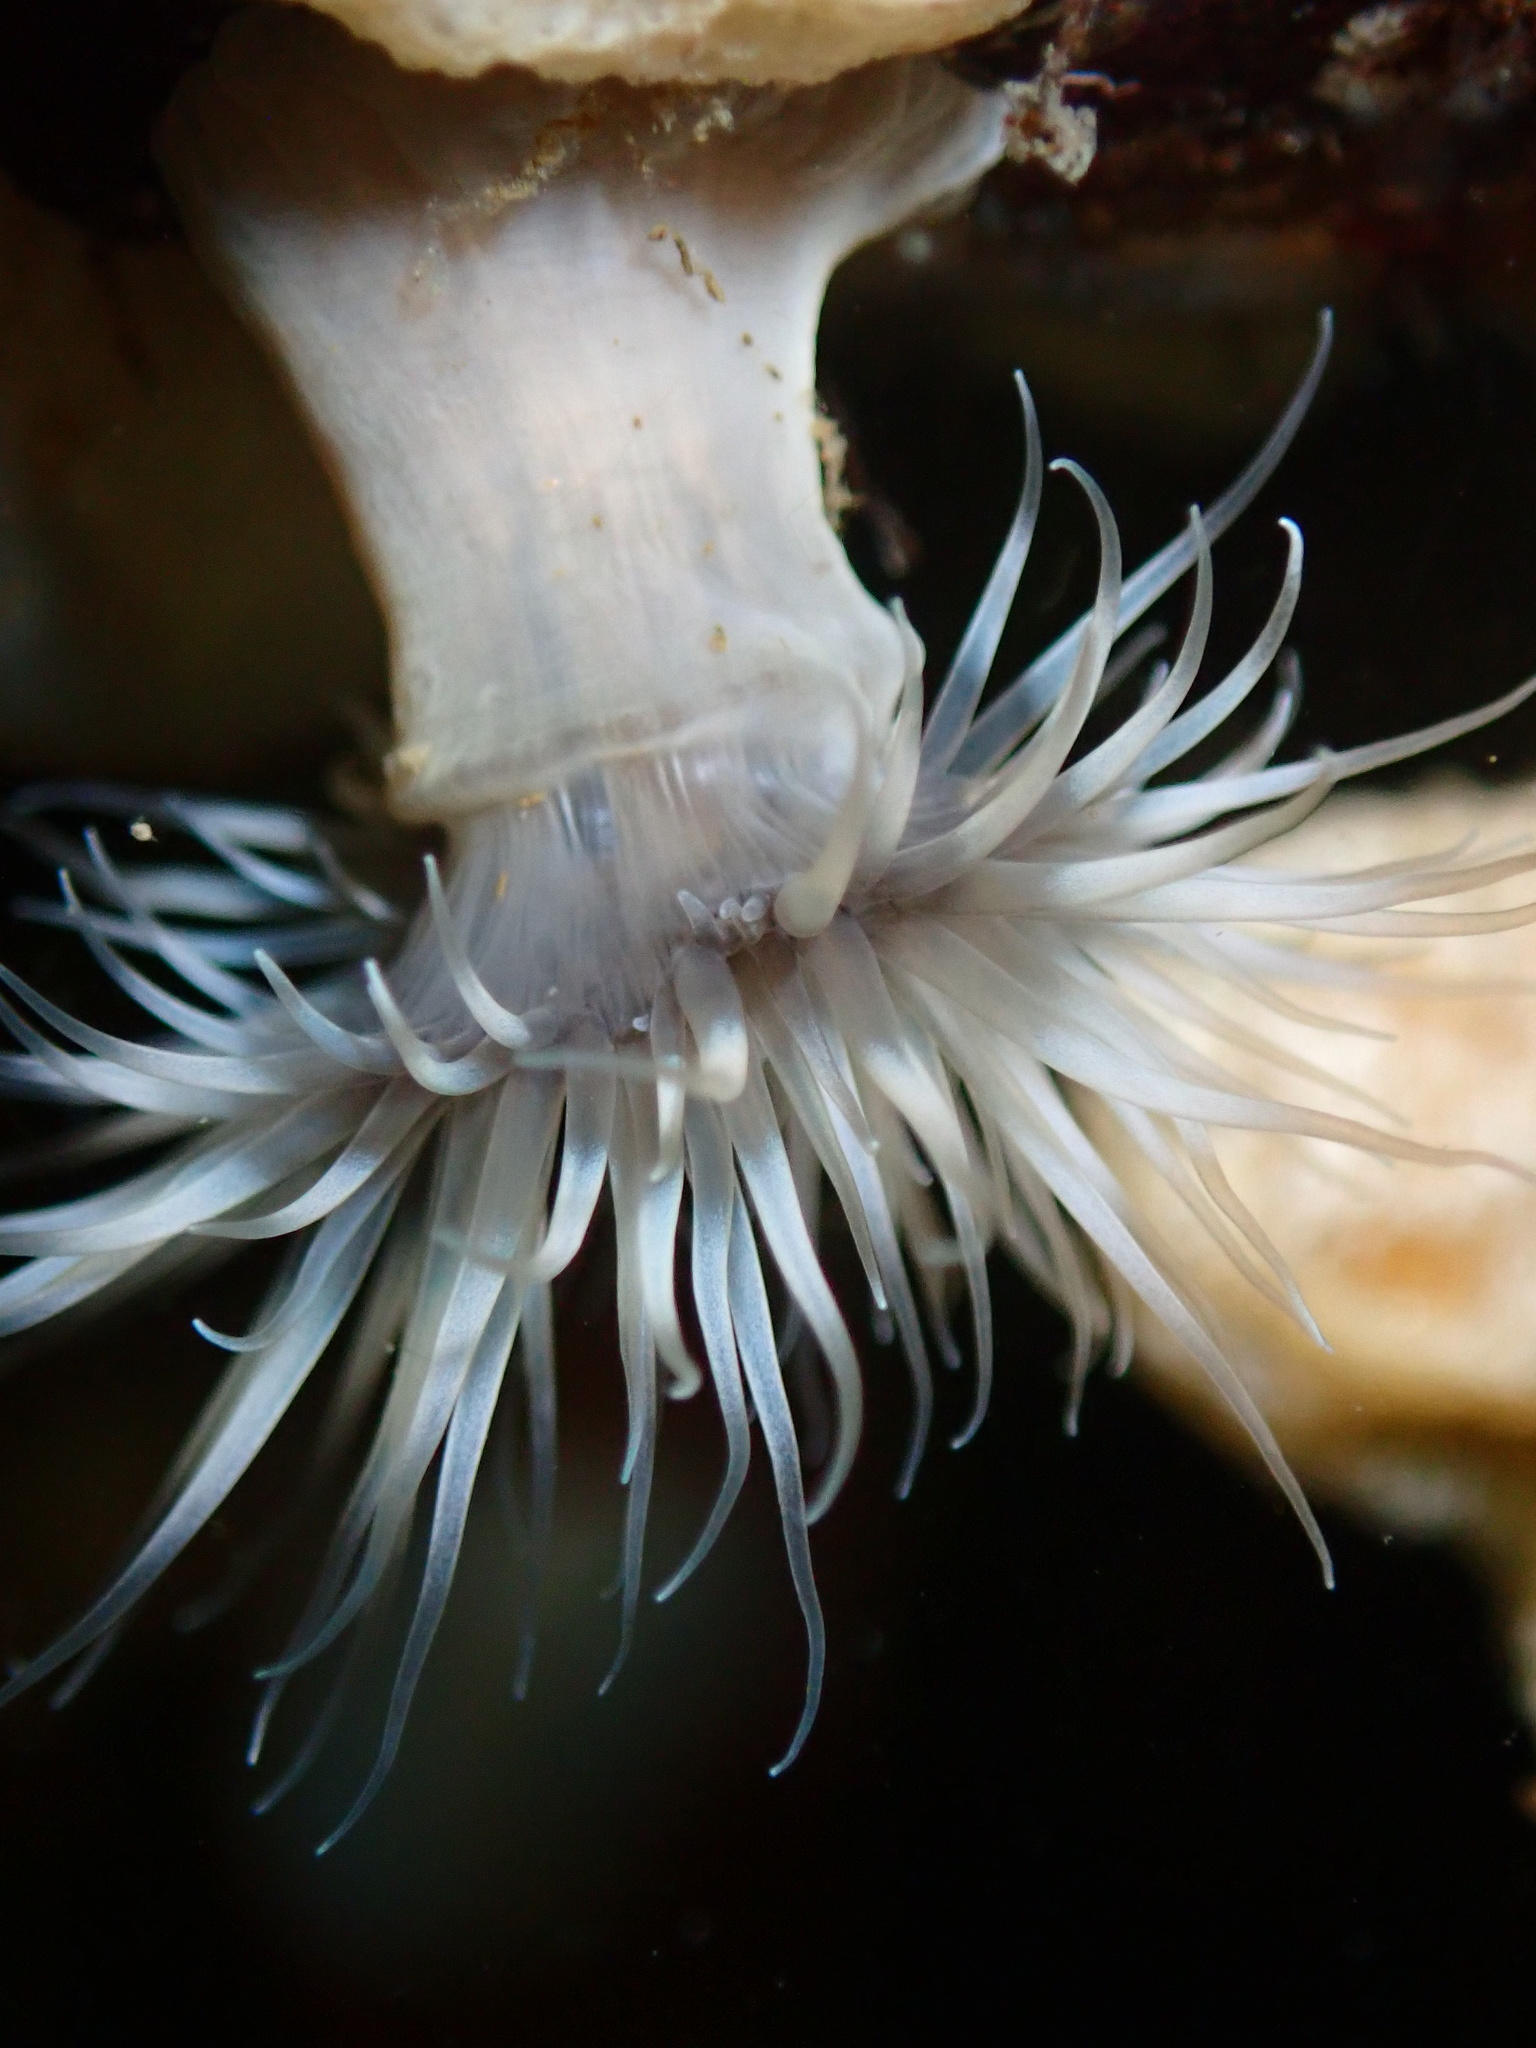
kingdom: Animalia
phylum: Cnidaria
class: Anthozoa
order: Actiniaria
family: Metridiidae
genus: Metridium
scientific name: Metridium senile
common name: Clonal plumose anemone
